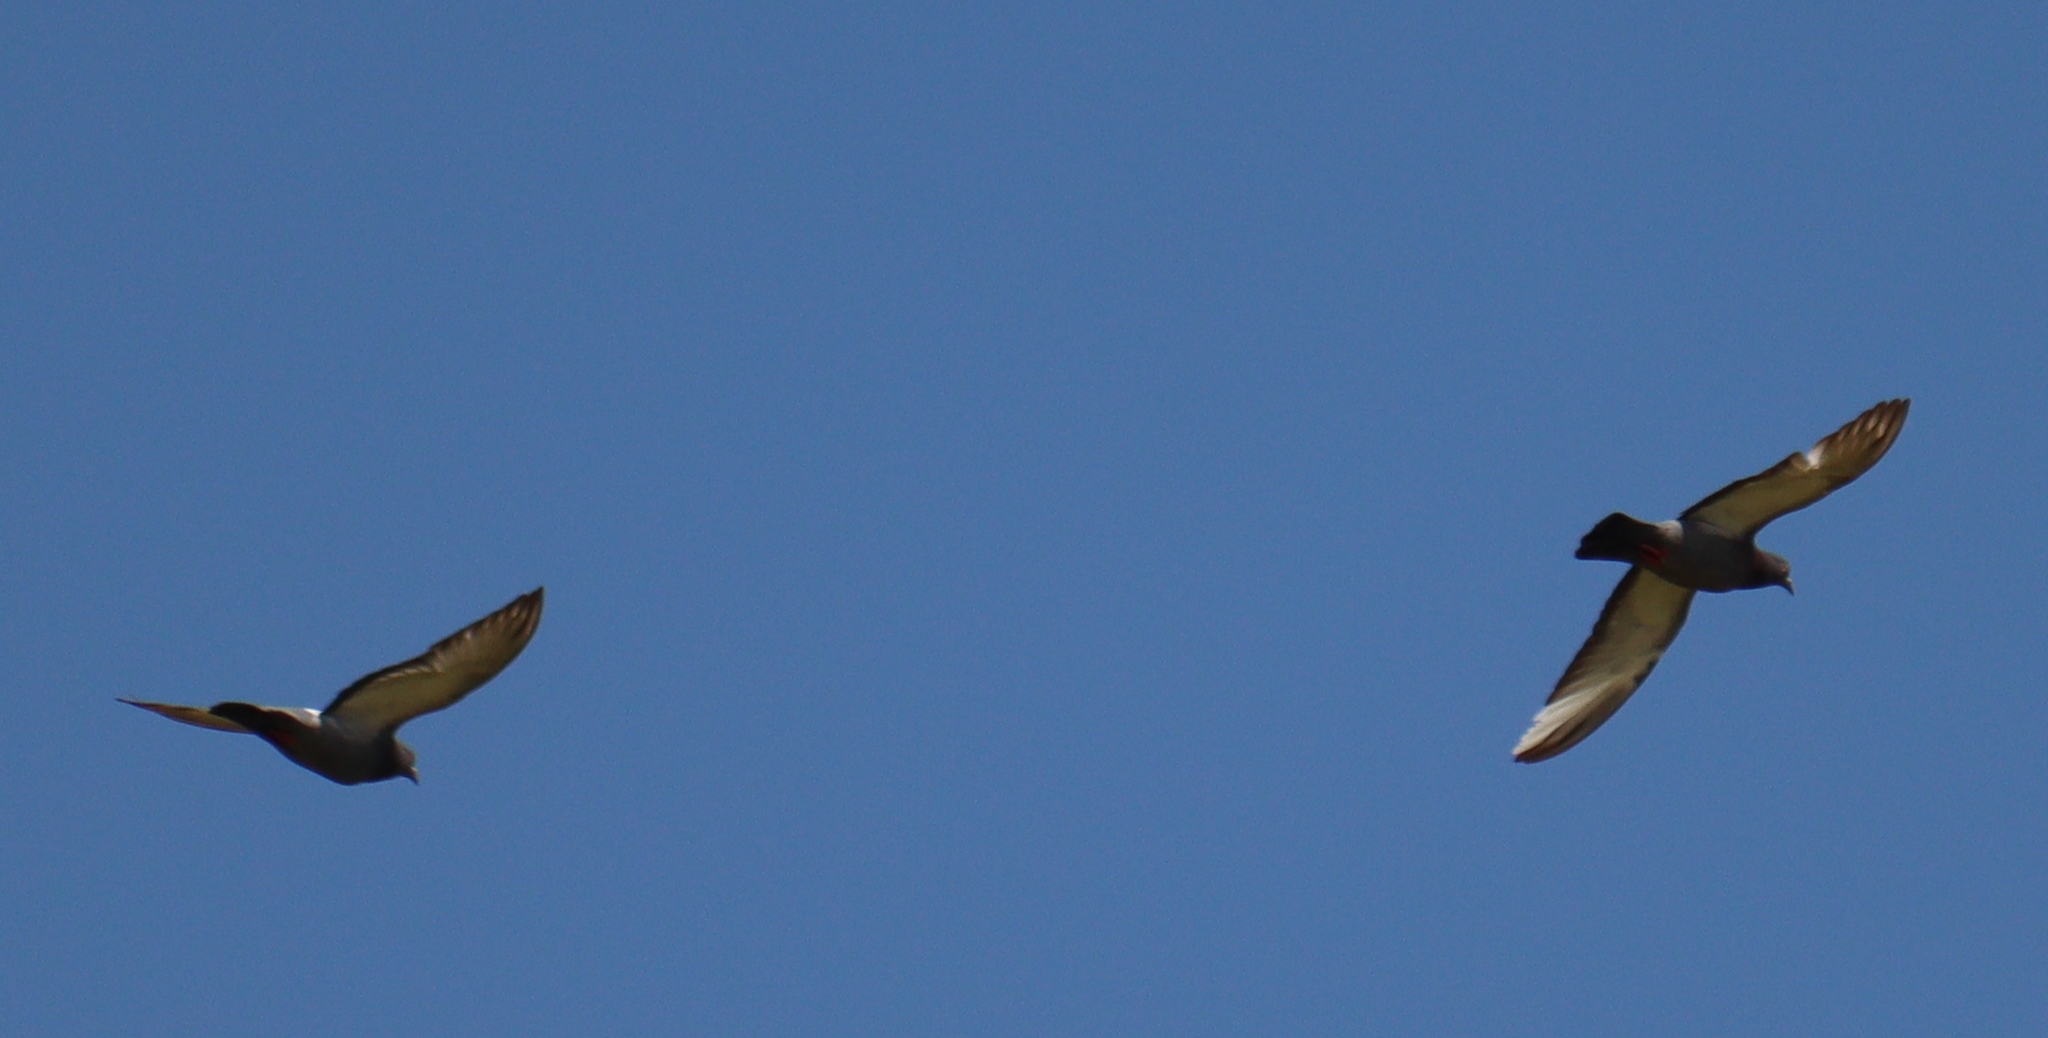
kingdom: Animalia
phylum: Chordata
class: Aves
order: Columbiformes
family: Columbidae
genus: Columba
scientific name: Columba livia
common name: Rock pigeon
